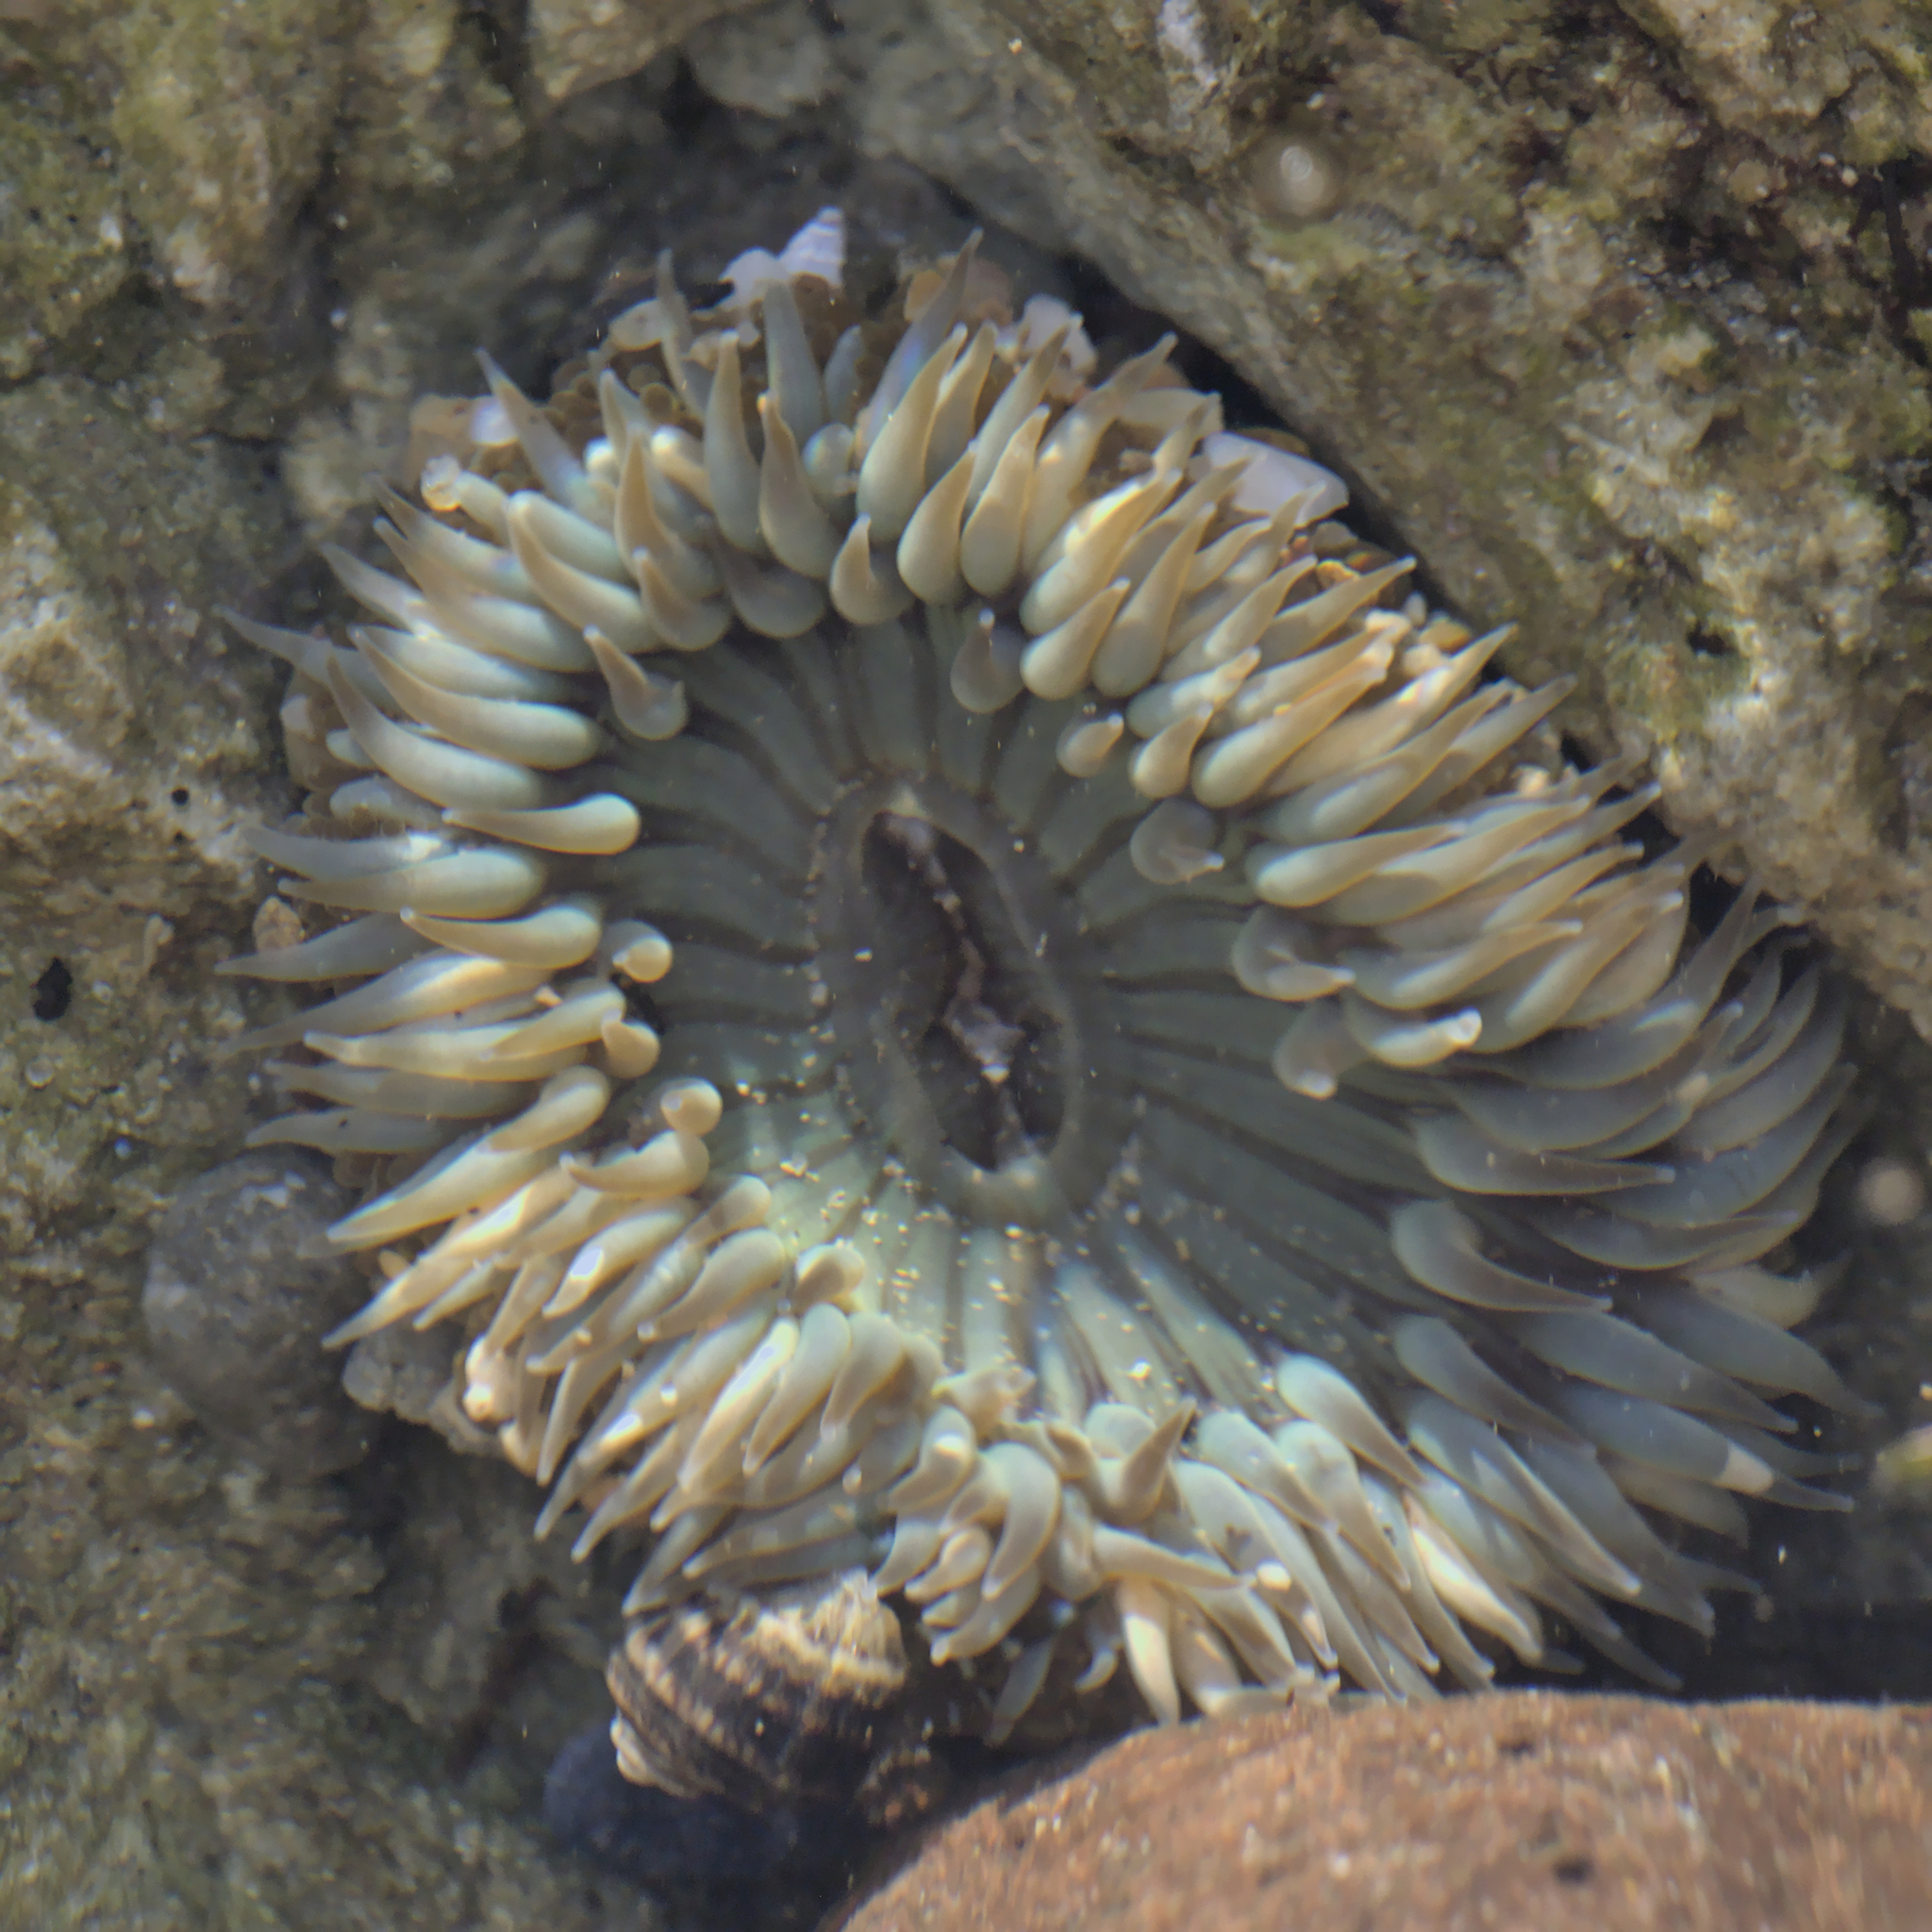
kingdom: Animalia
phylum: Cnidaria
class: Anthozoa
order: Actiniaria
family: Actiniidae
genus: Anthopleura
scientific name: Anthopleura sola
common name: Sun anemone
